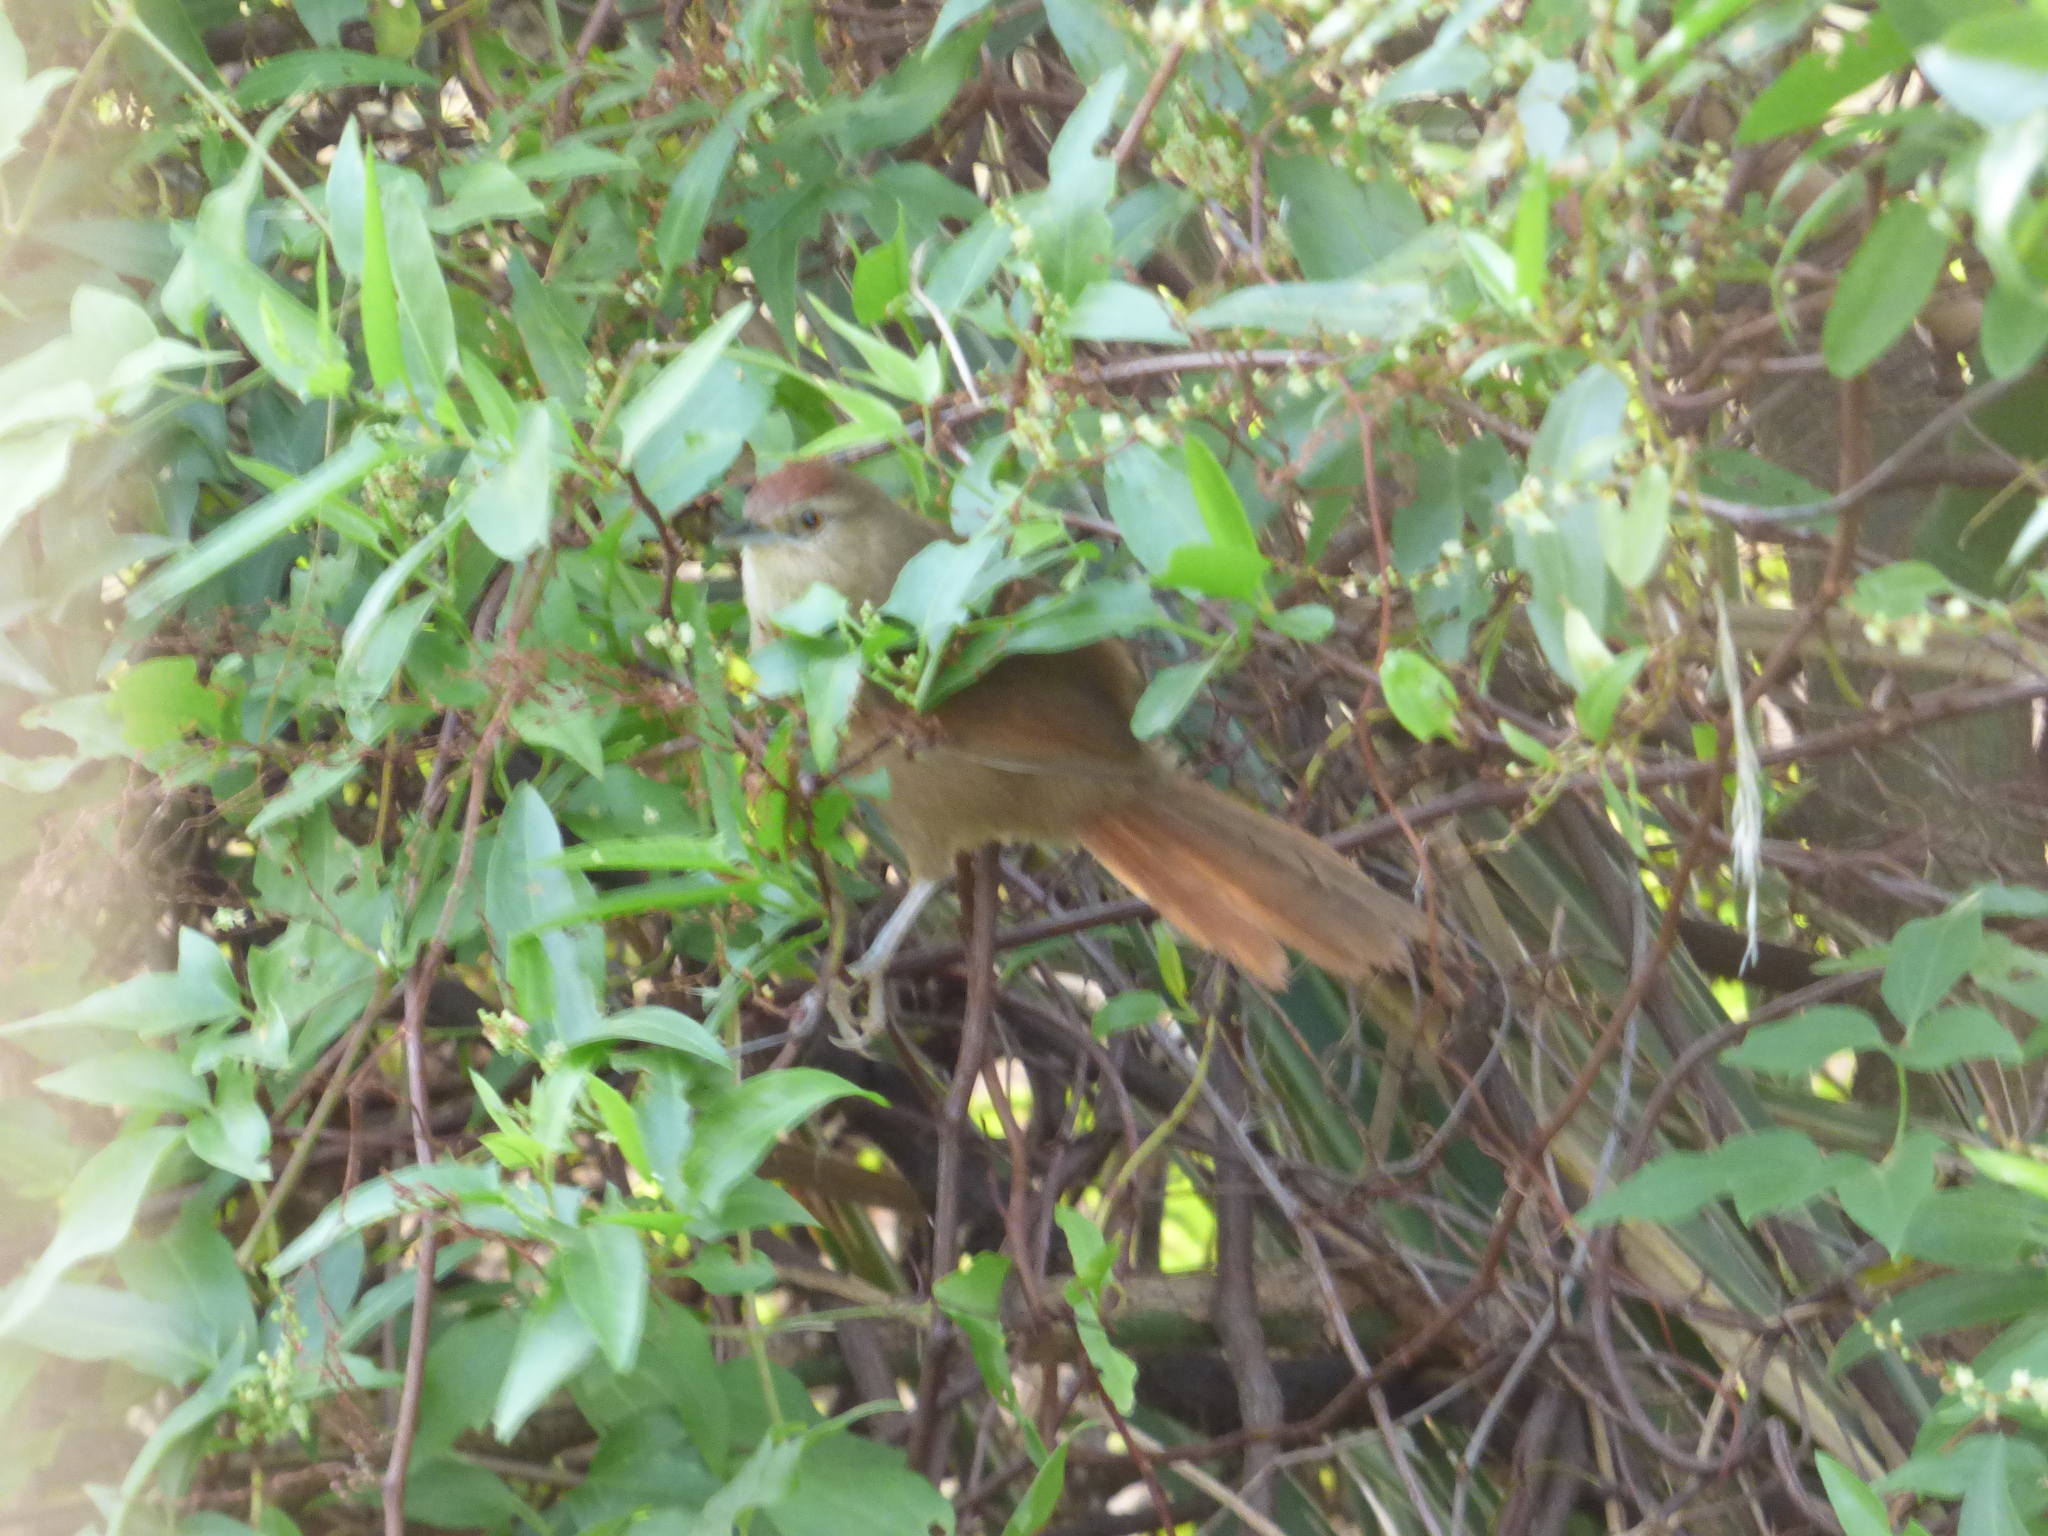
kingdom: Animalia
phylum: Chordata
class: Aves
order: Passeriformes
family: Furnariidae
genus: Phacellodomus
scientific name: Phacellodomus striaticollis
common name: Freckle-breasted thornbird
